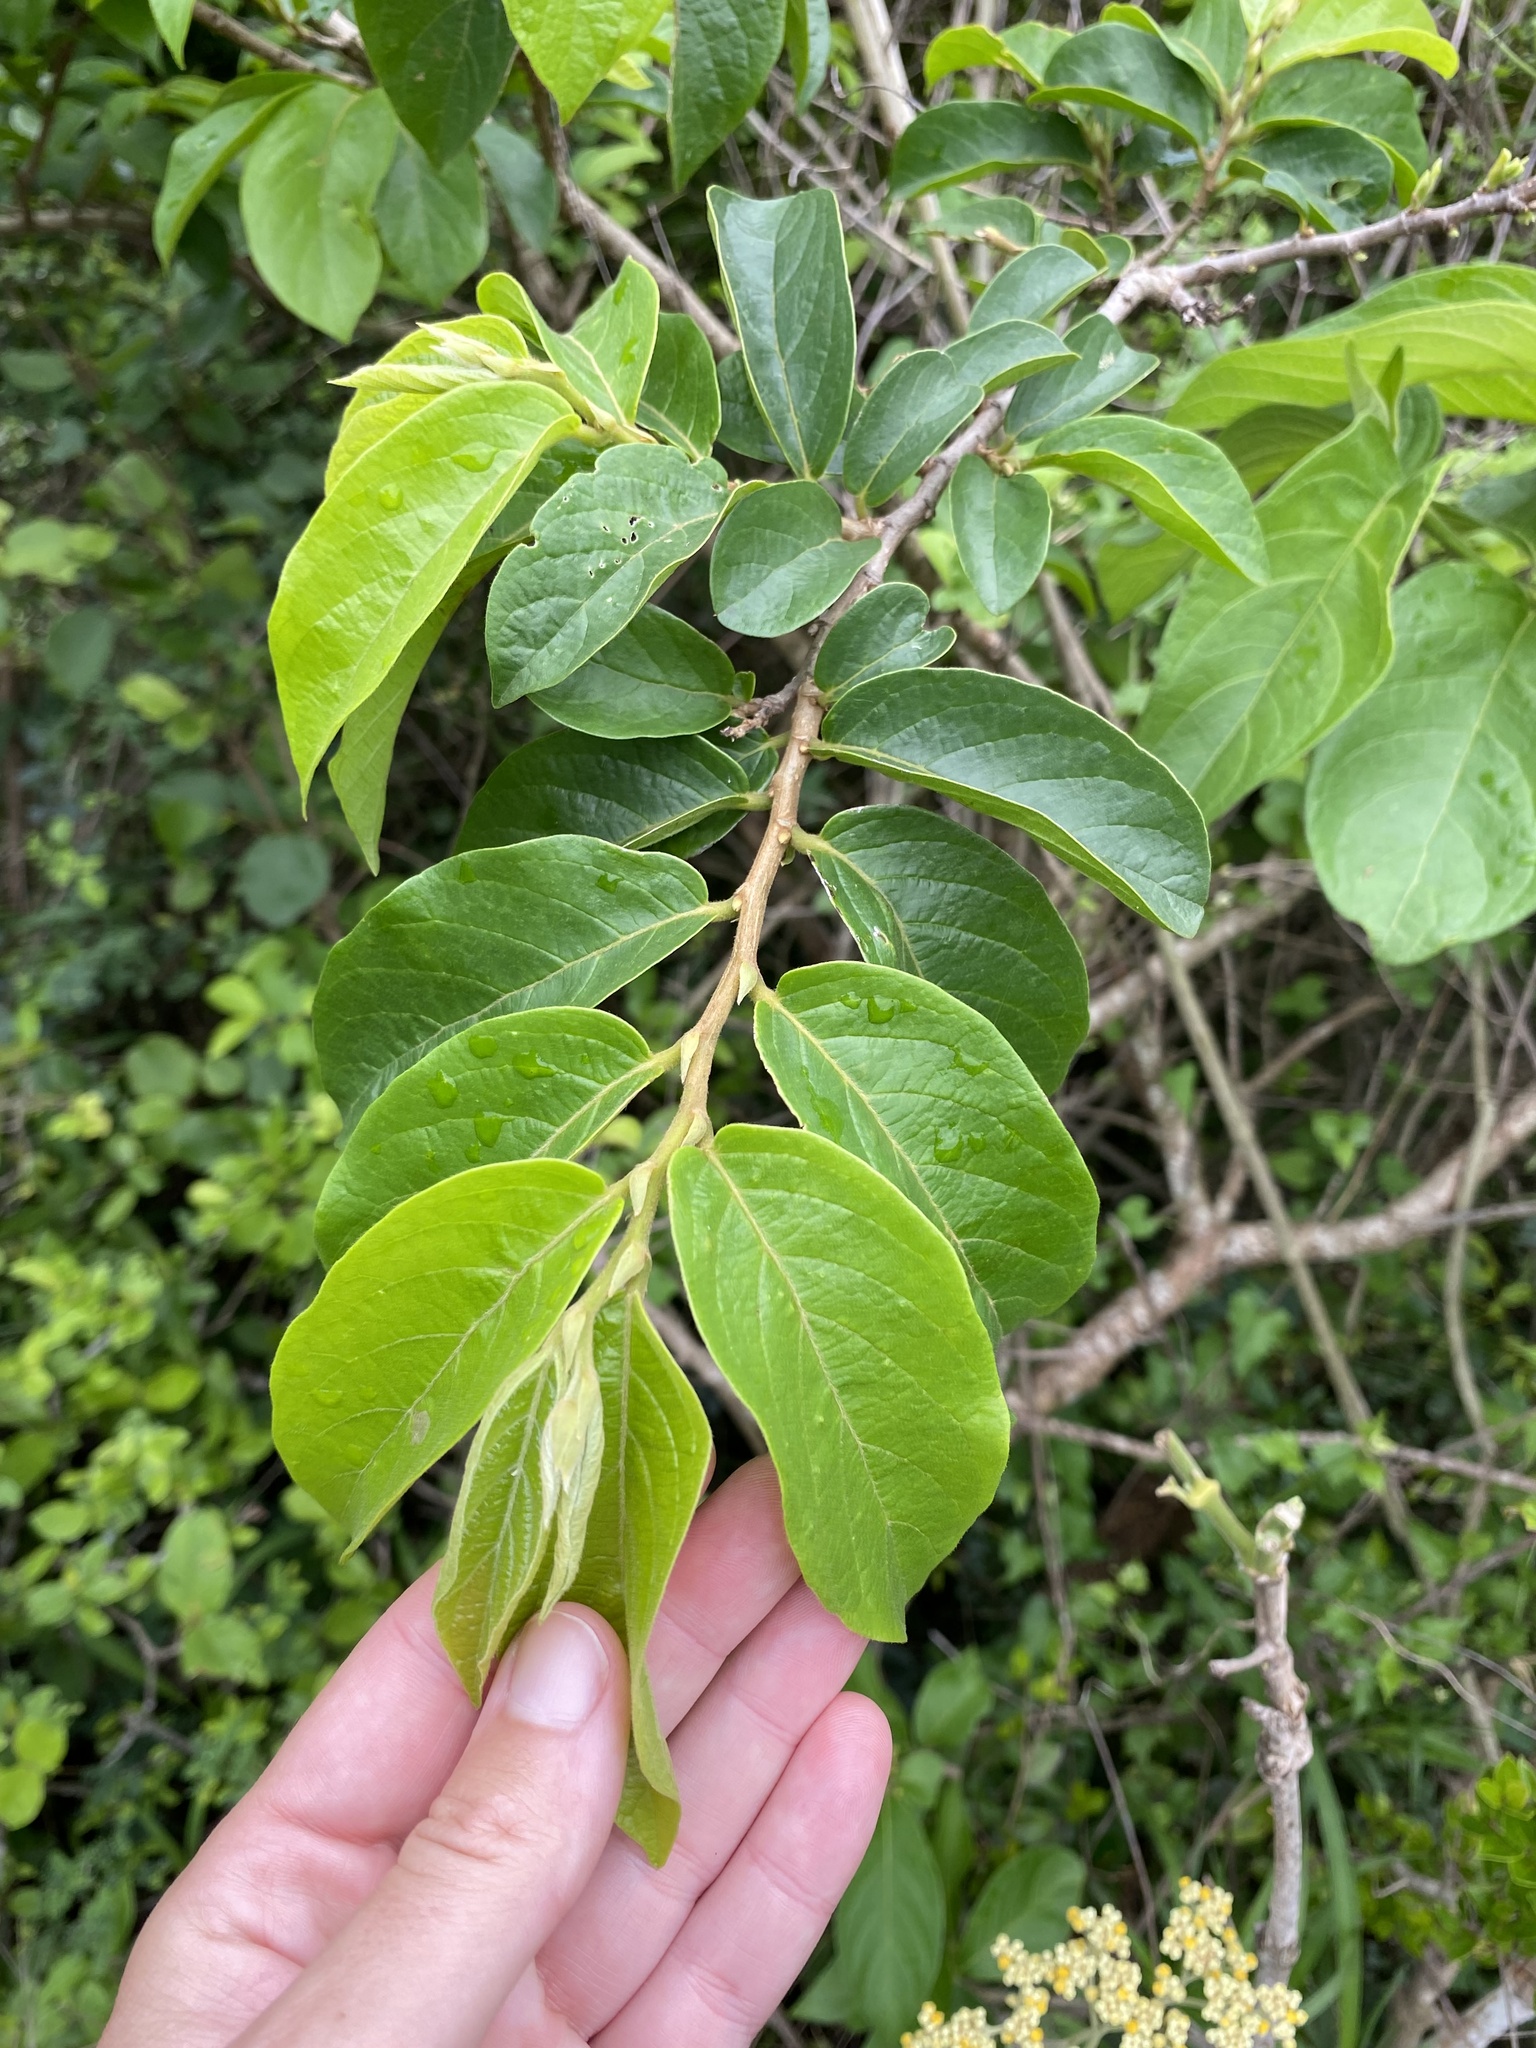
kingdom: Plantae
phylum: Tracheophyta
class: Magnoliopsida
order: Malpighiales
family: Phyllanthaceae
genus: Antidesma
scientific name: Antidesma venosum
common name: Tassel-berry
